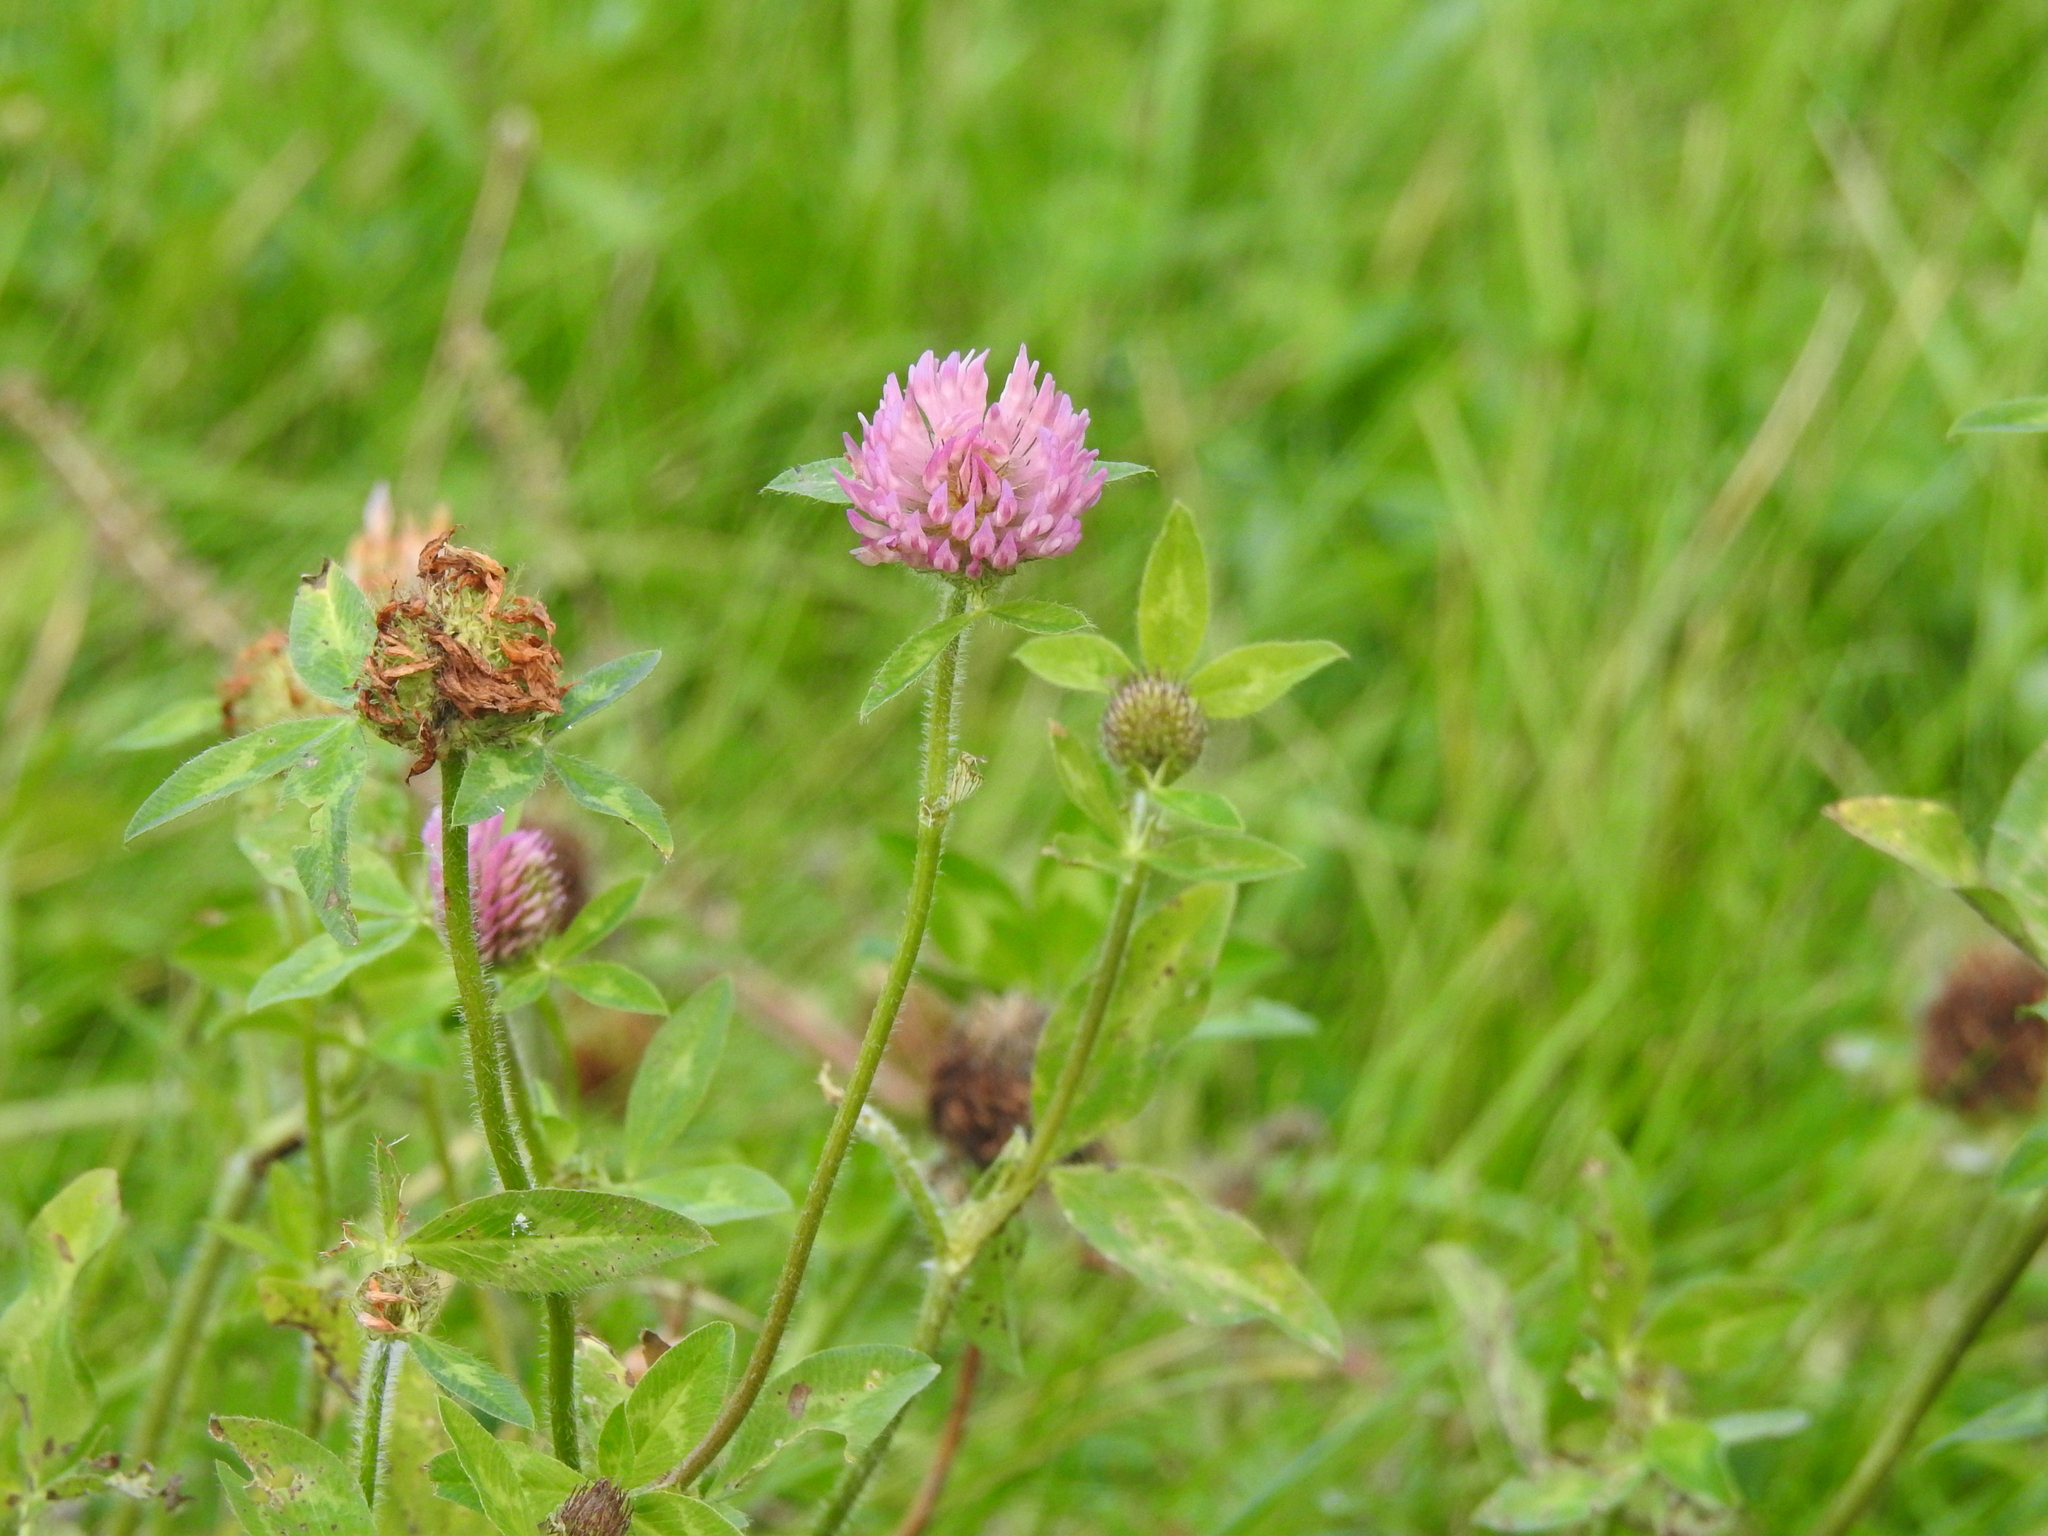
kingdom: Plantae
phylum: Tracheophyta
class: Magnoliopsida
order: Fabales
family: Fabaceae
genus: Trifolium
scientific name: Trifolium pratense
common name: Red clover
